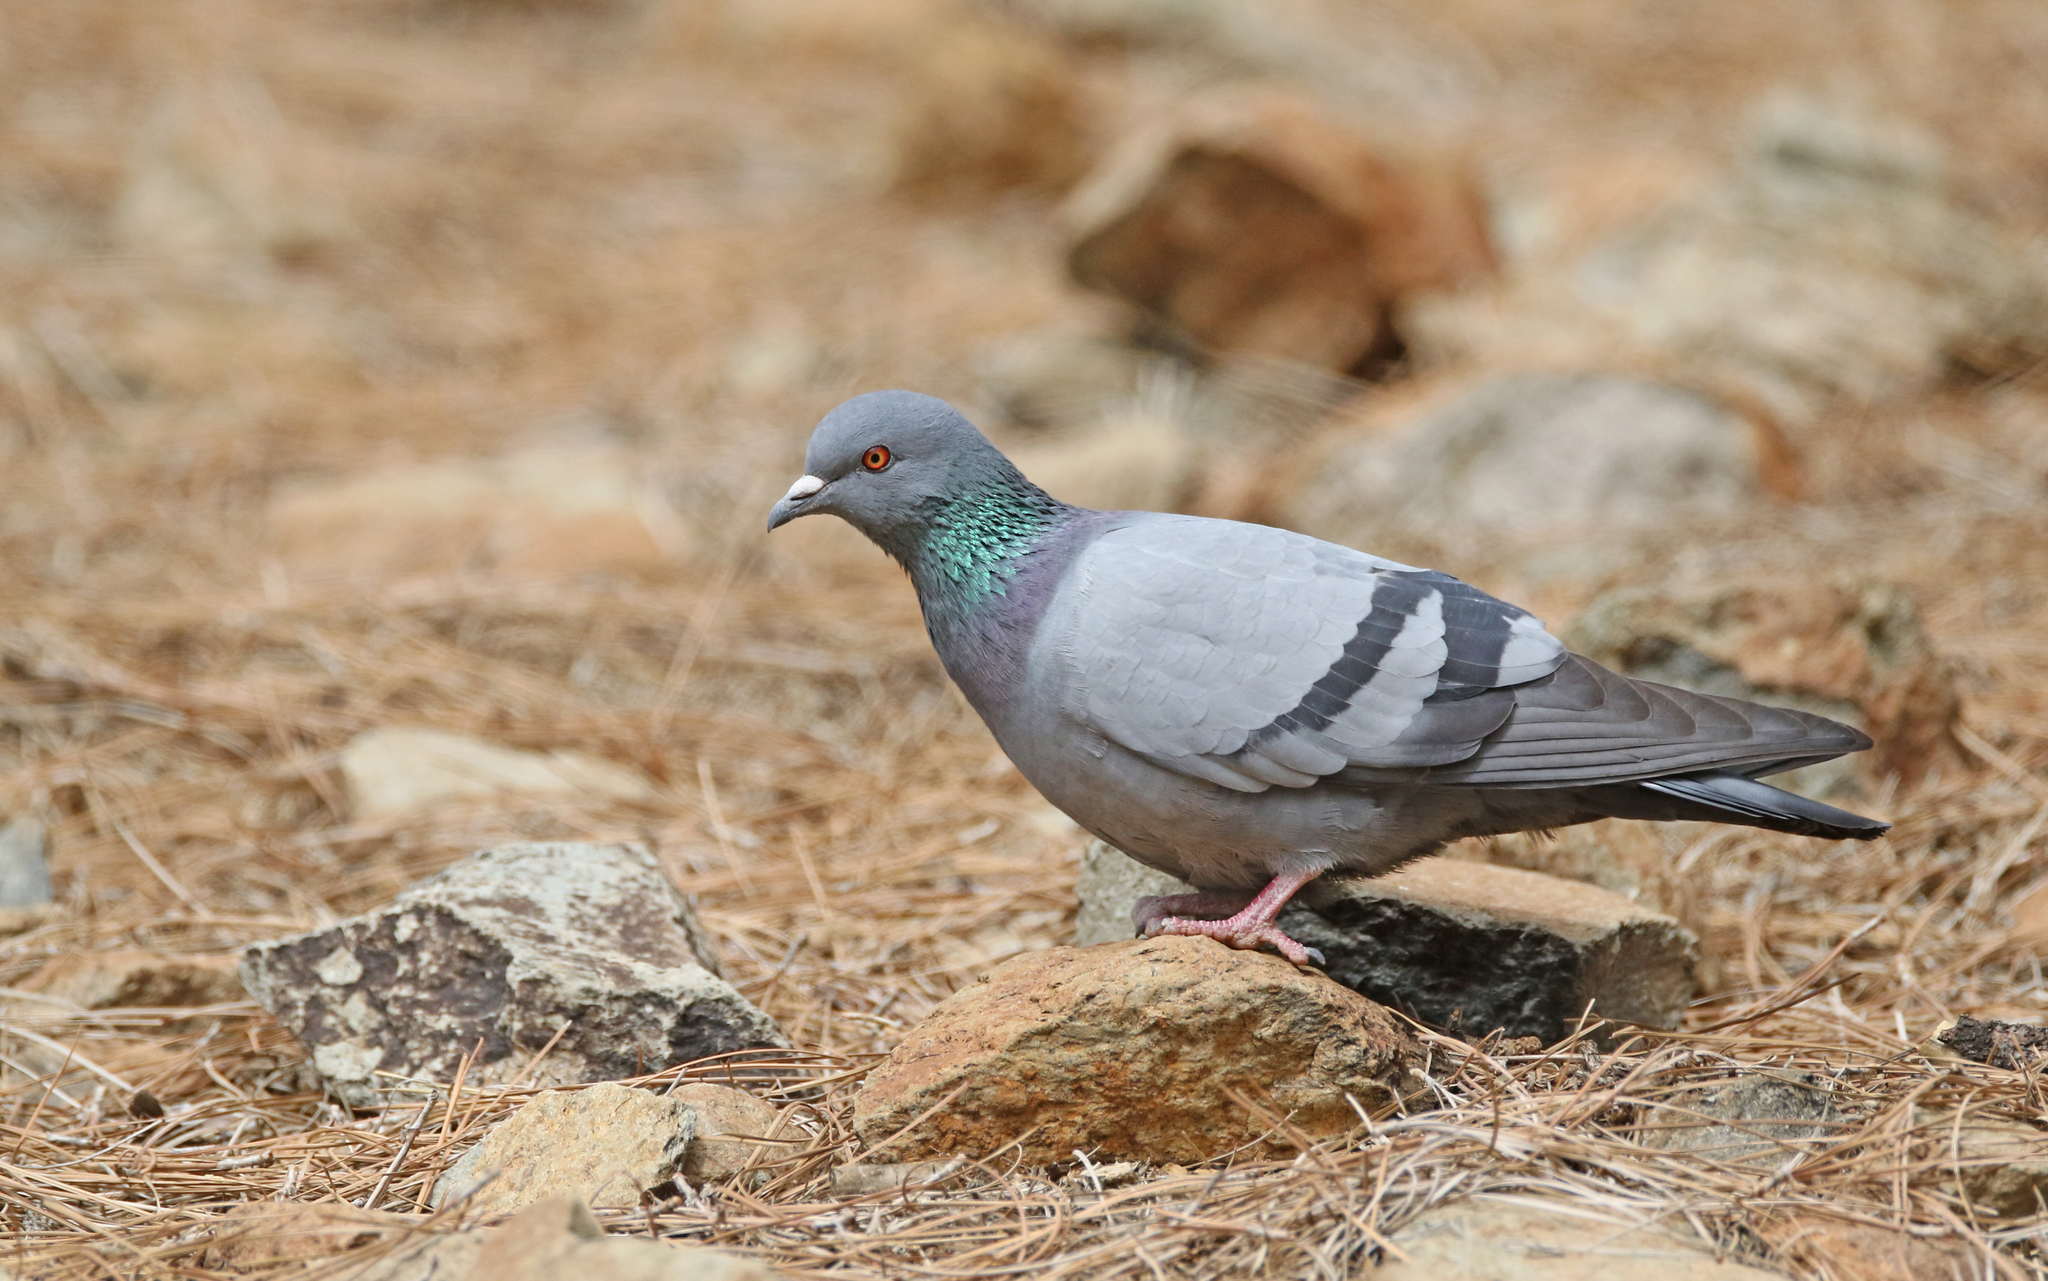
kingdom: Animalia
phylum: Chordata
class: Aves
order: Columbiformes
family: Columbidae
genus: Columba
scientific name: Columba livia
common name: Rock pigeon
